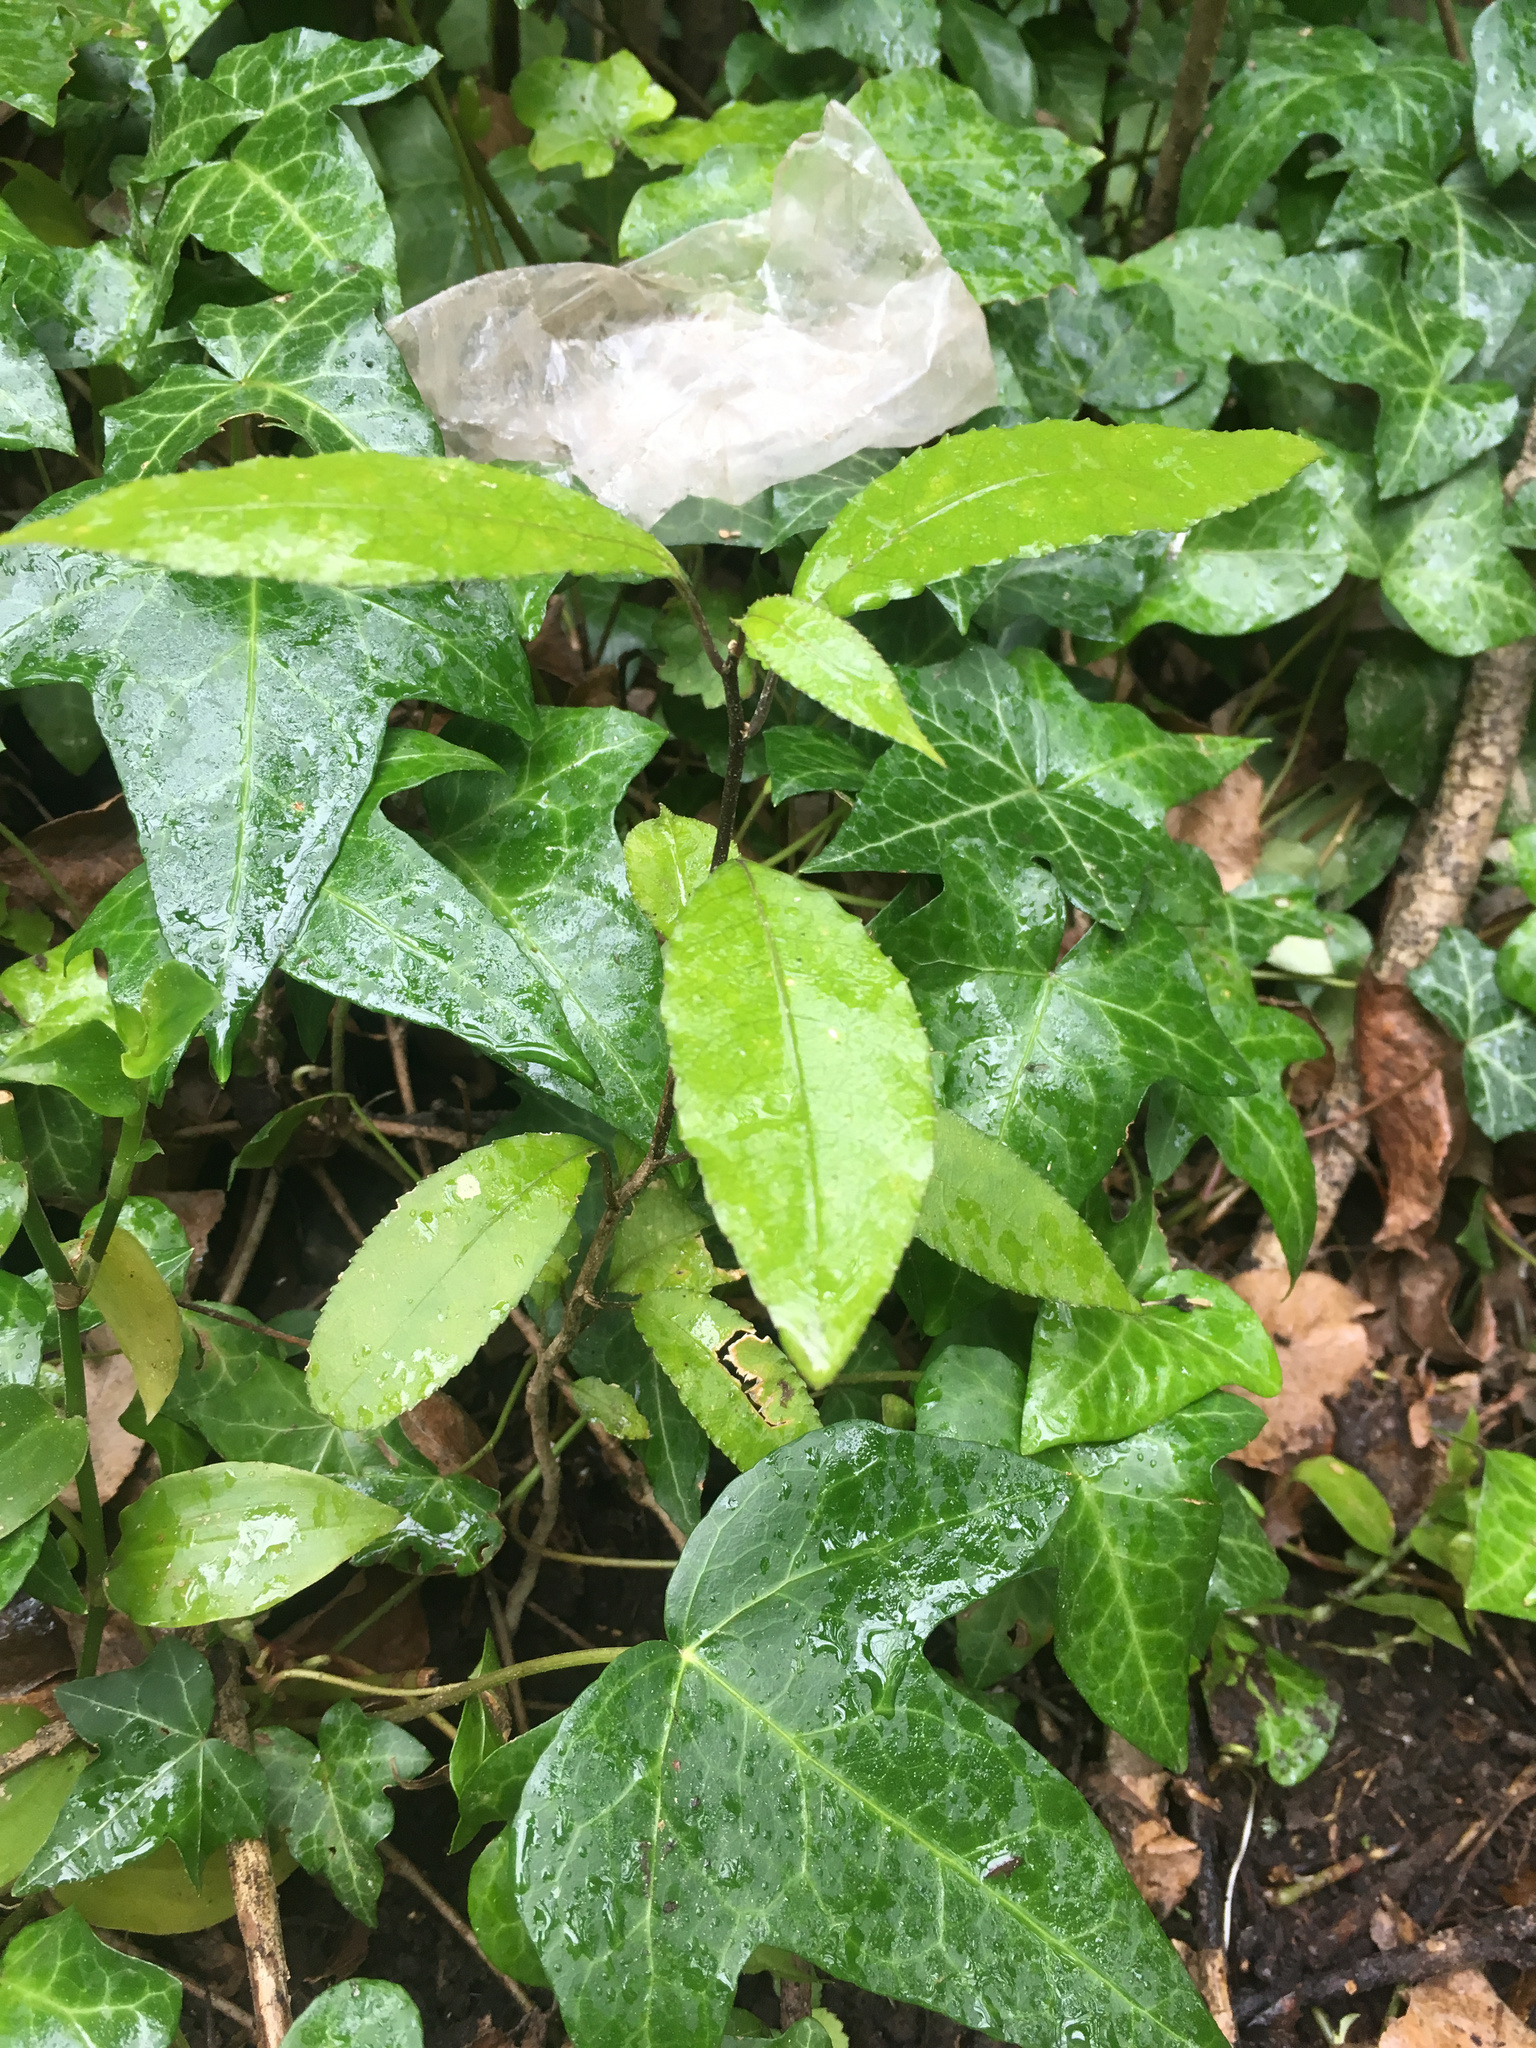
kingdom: Plantae
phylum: Tracheophyta
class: Magnoliopsida
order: Malpighiales
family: Violaceae
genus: Melicytus
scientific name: Melicytus ramiflorus
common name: Mahoe
